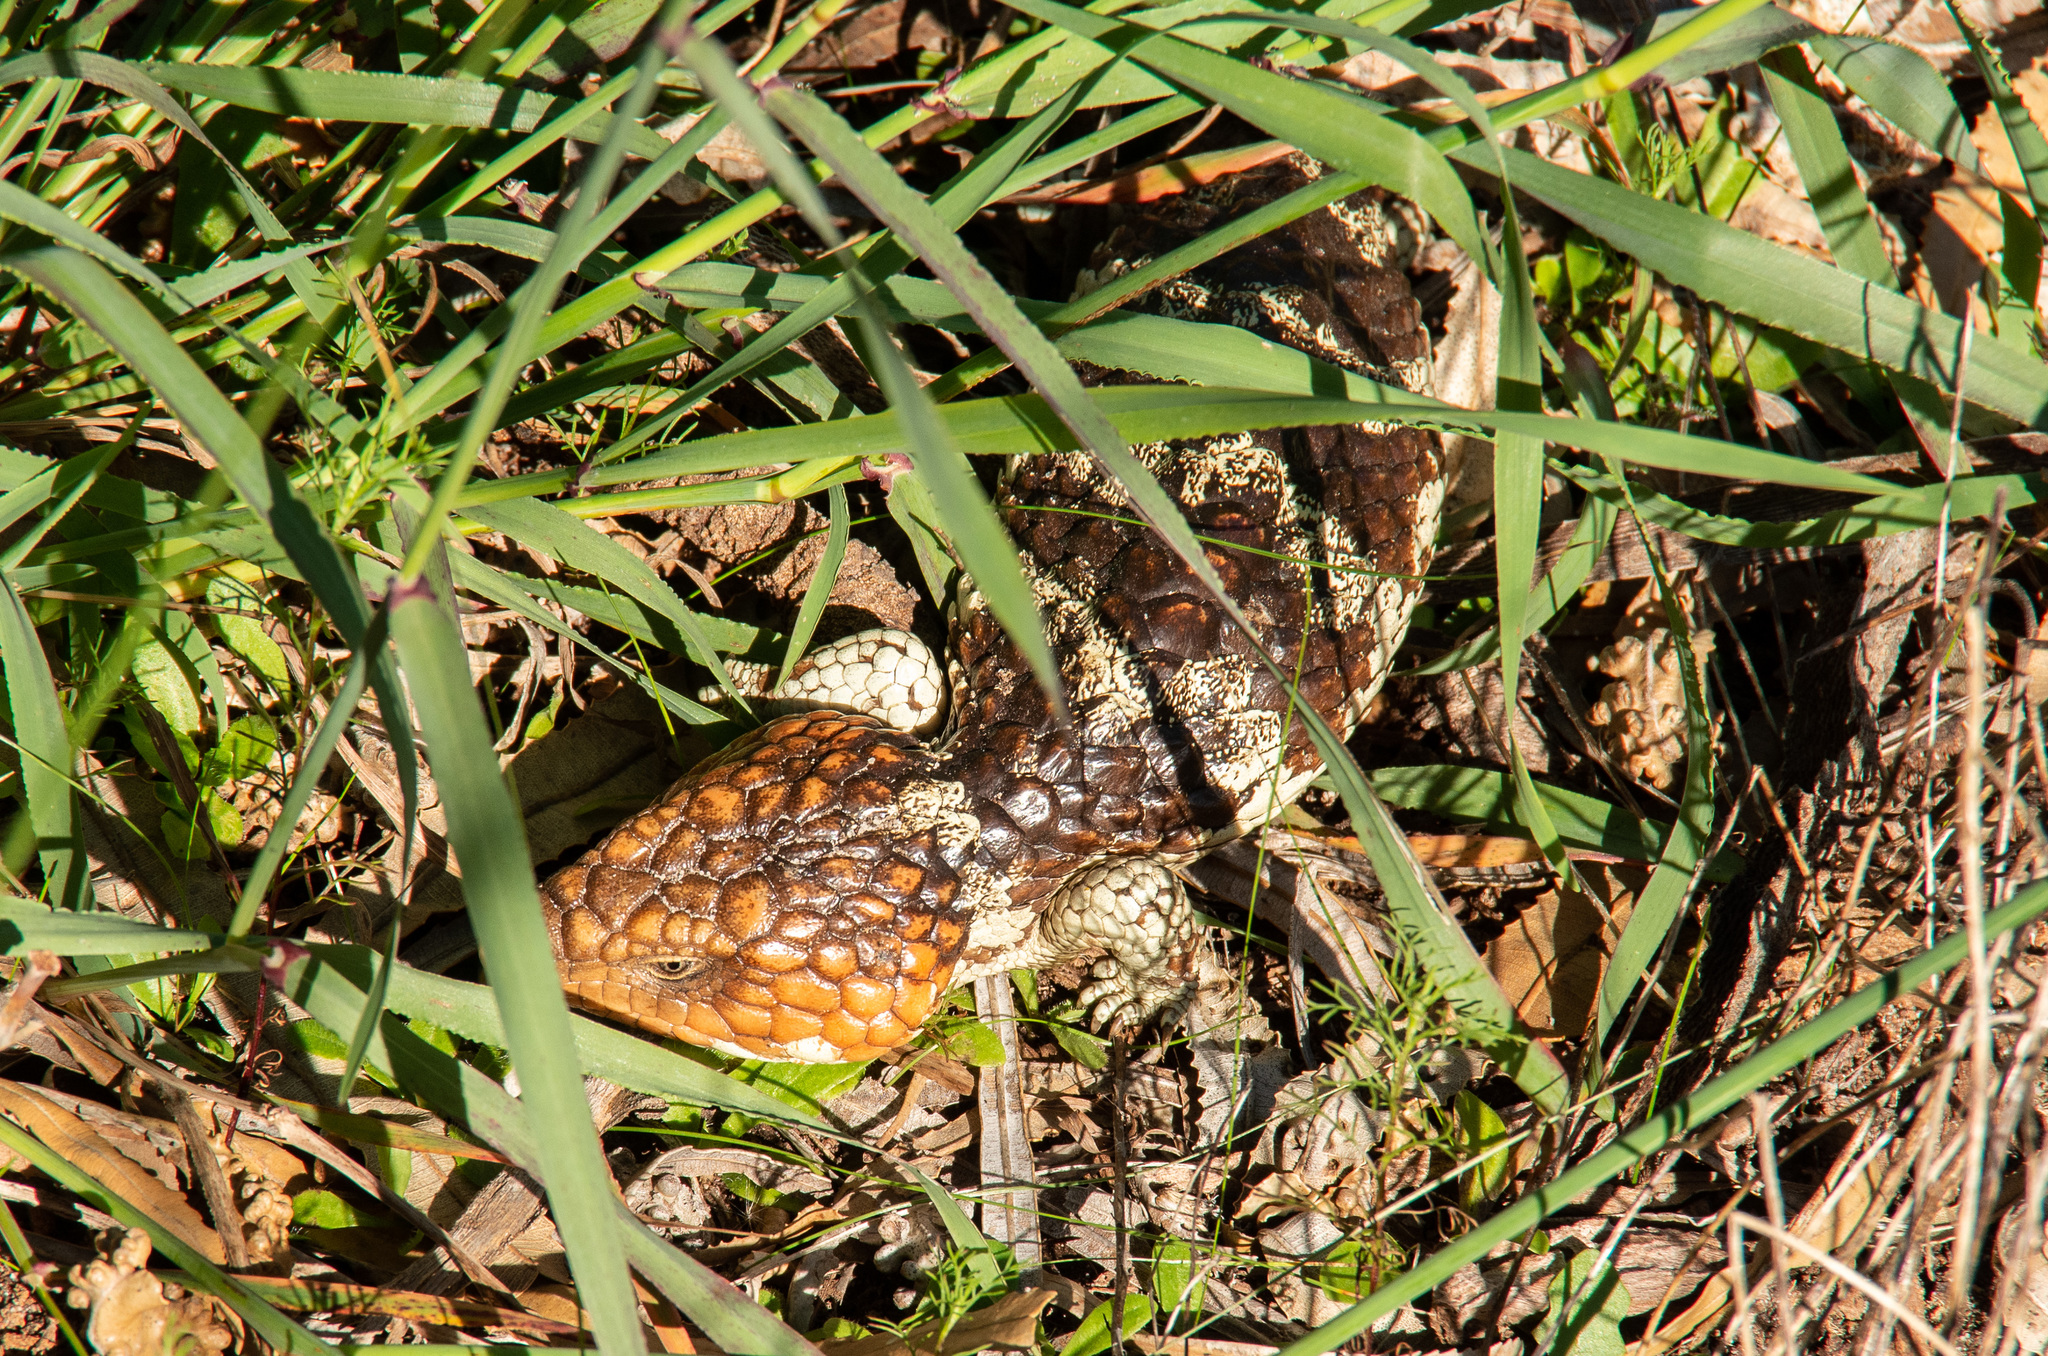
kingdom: Animalia
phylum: Chordata
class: Squamata
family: Scincidae
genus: Tiliqua
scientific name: Tiliqua rugosa
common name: Pinecone lizard
